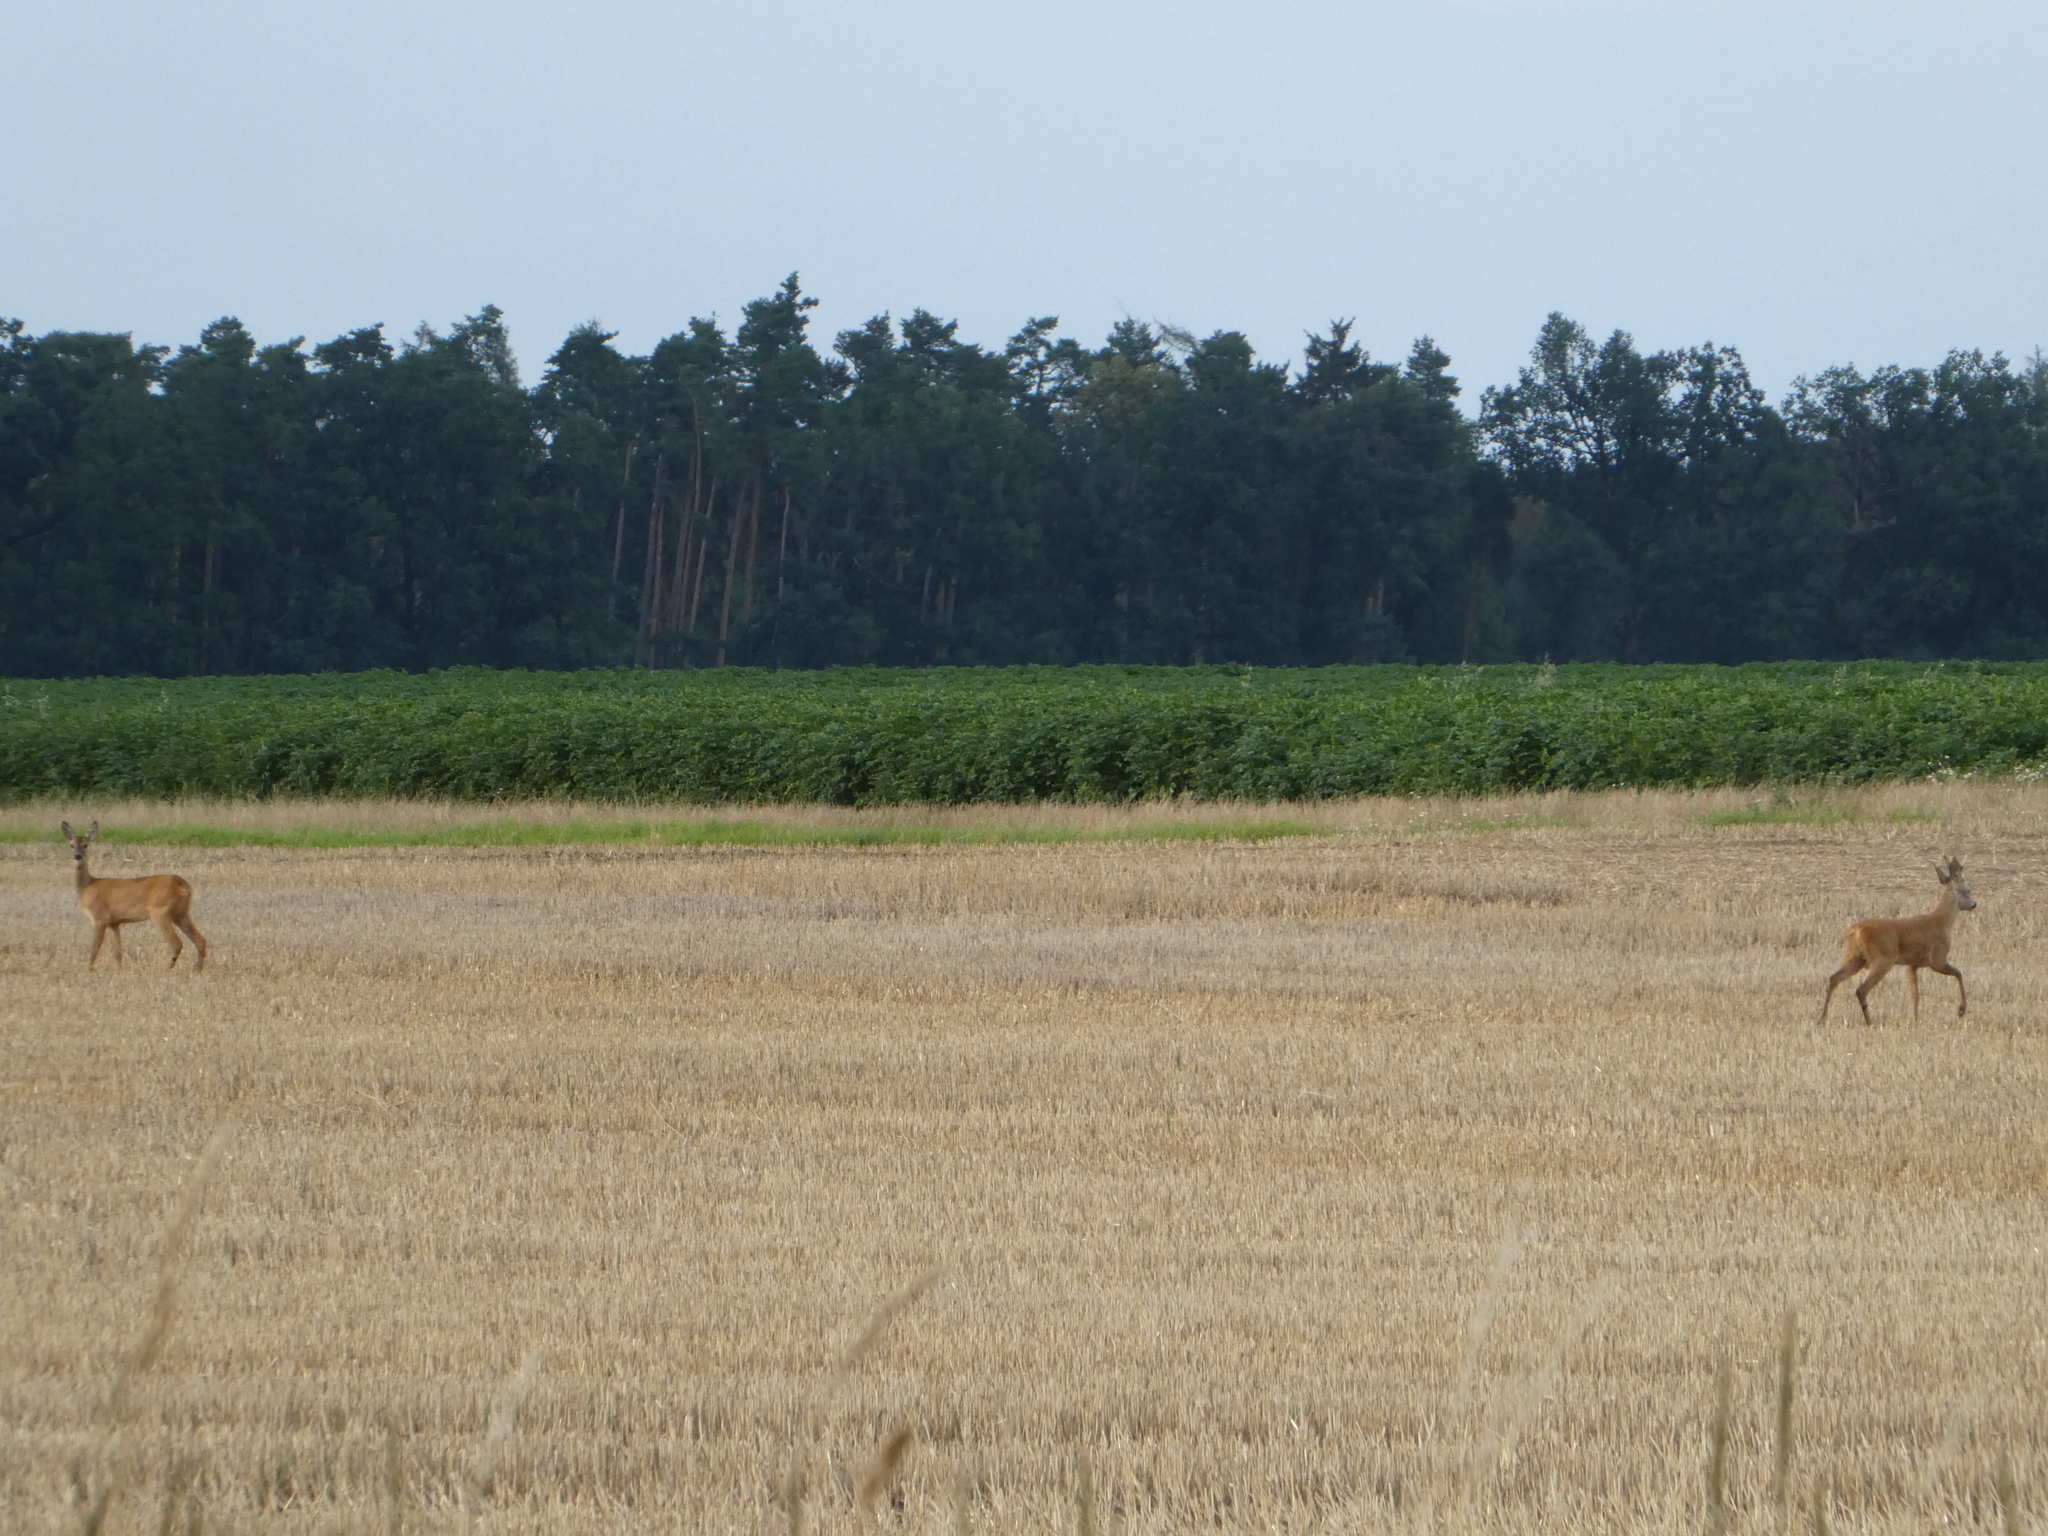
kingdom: Animalia
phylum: Chordata
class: Mammalia
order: Artiodactyla
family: Cervidae
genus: Capreolus
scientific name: Capreolus capreolus
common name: Western roe deer
